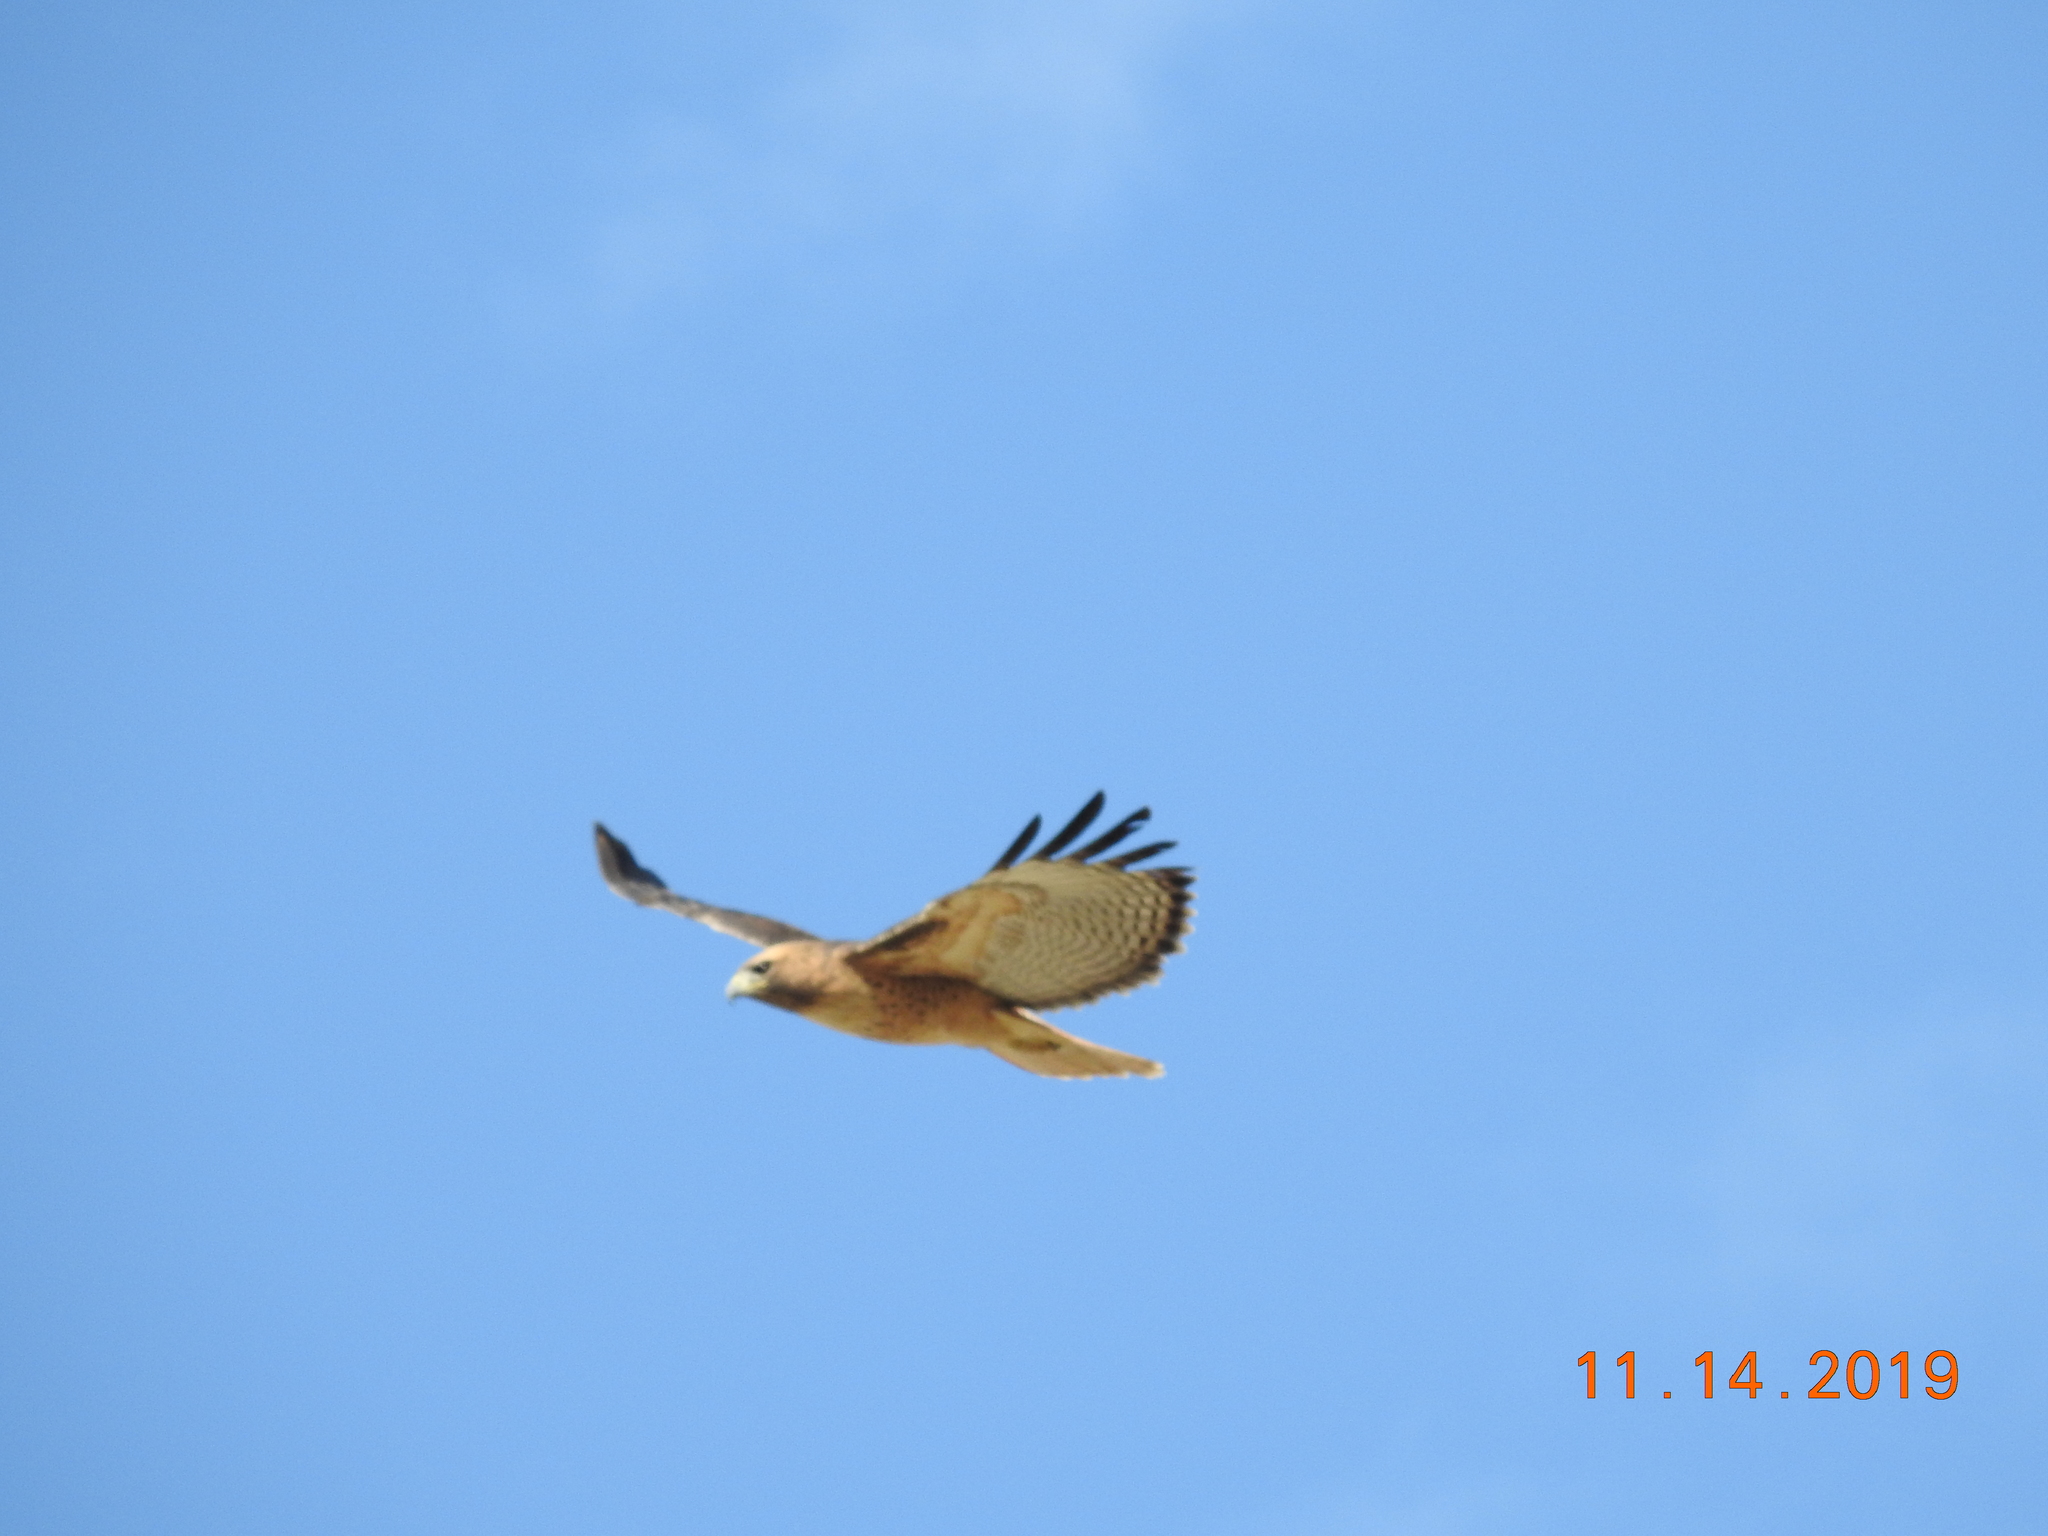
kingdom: Animalia
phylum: Chordata
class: Aves
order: Accipitriformes
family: Accipitridae
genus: Buteo
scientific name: Buteo jamaicensis
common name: Red-tailed hawk
